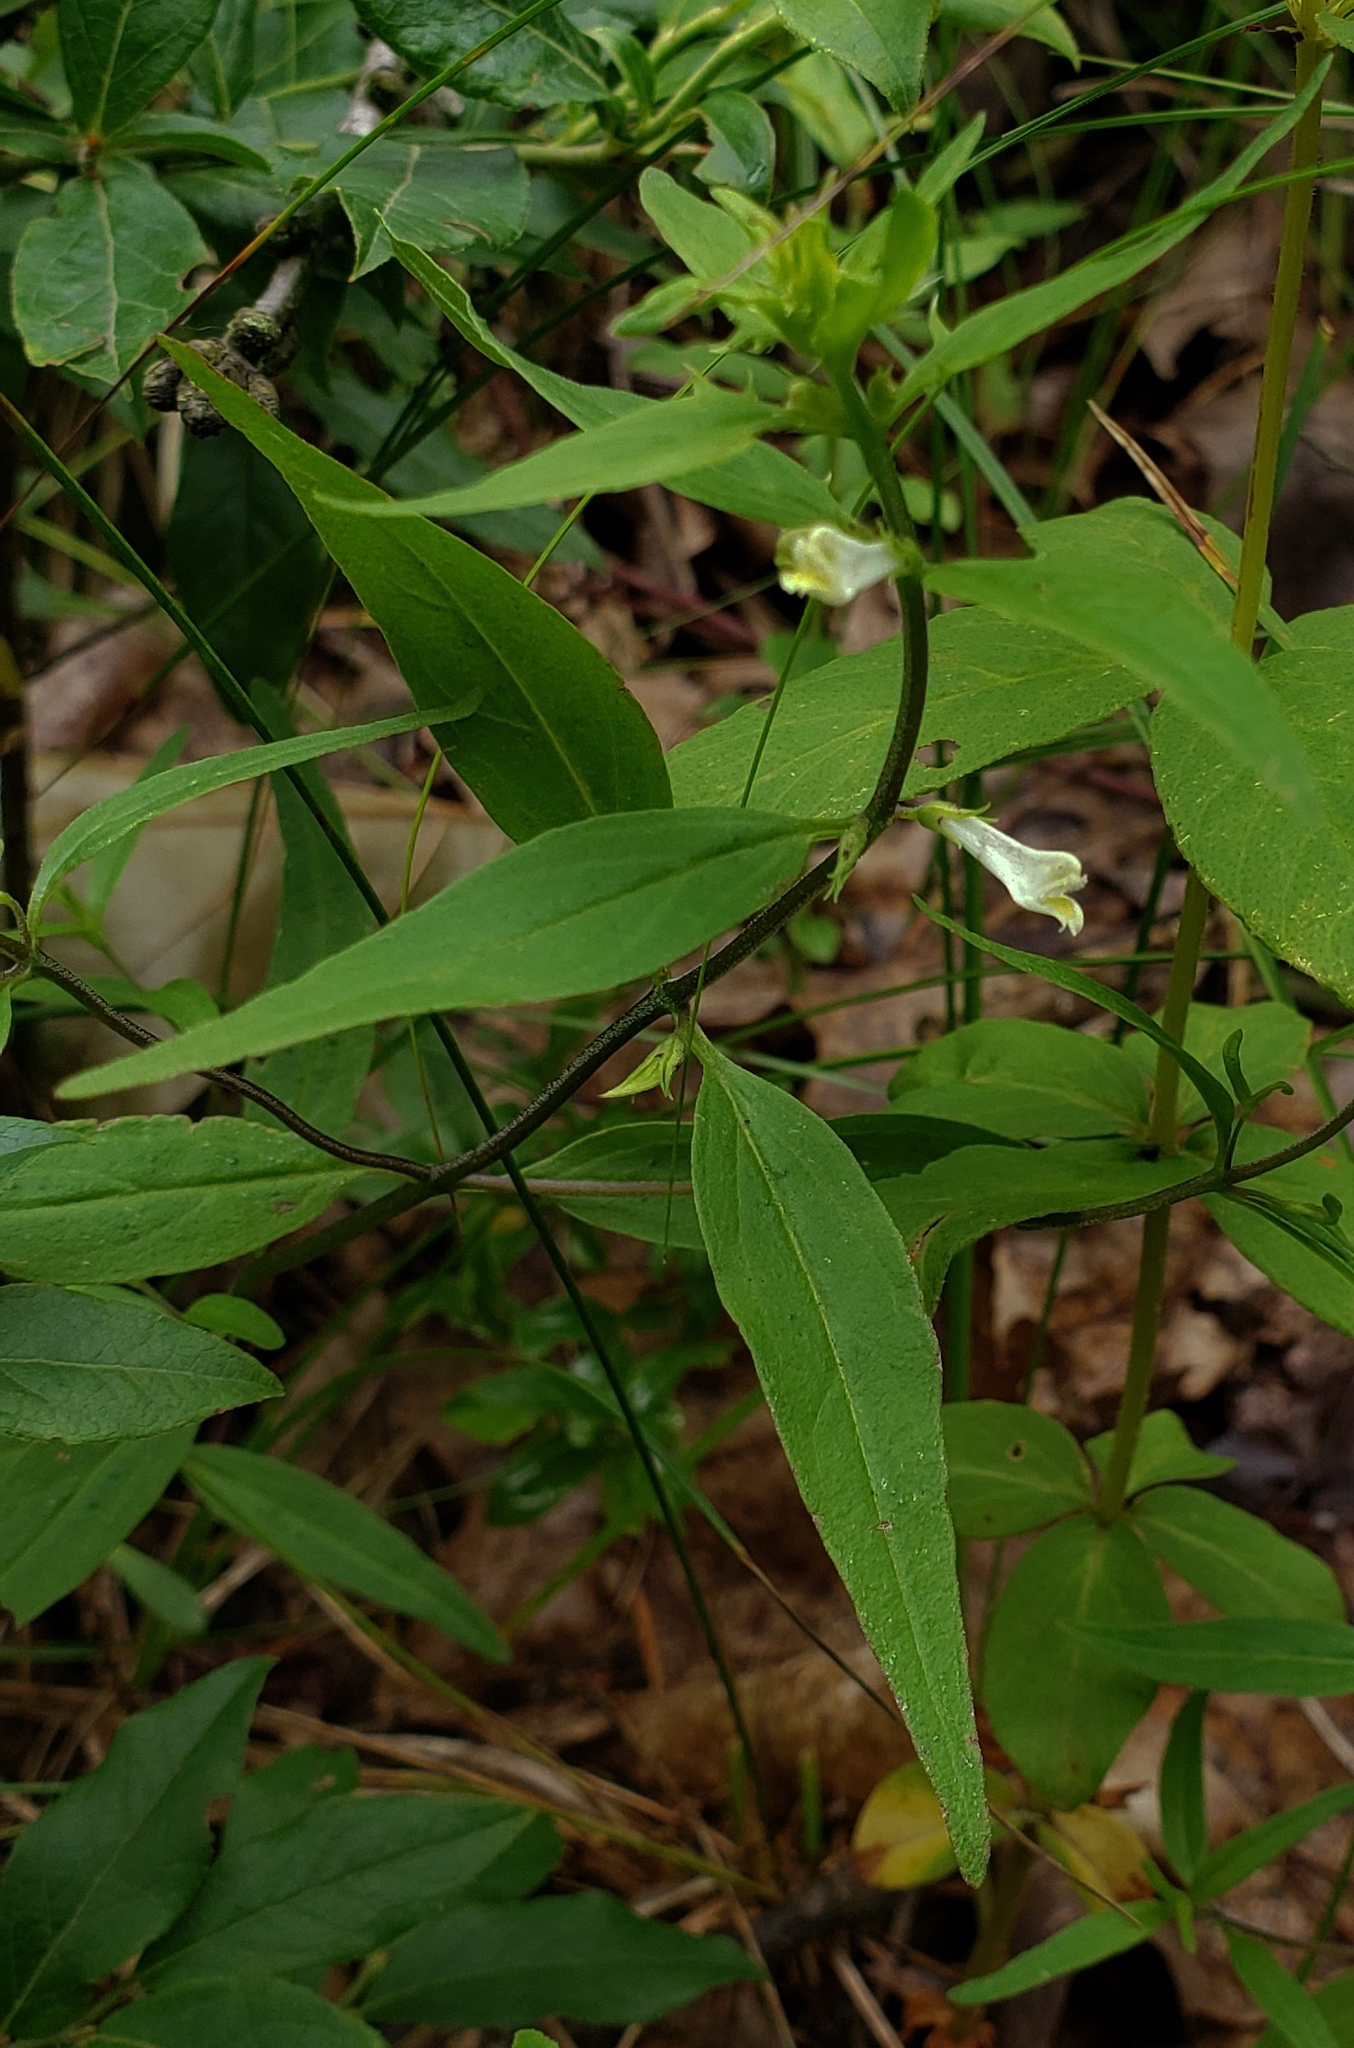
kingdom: Plantae
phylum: Tracheophyta
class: Magnoliopsida
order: Lamiales
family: Orobanchaceae
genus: Melampyrum
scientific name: Melampyrum lineare
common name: American cow-wheat
